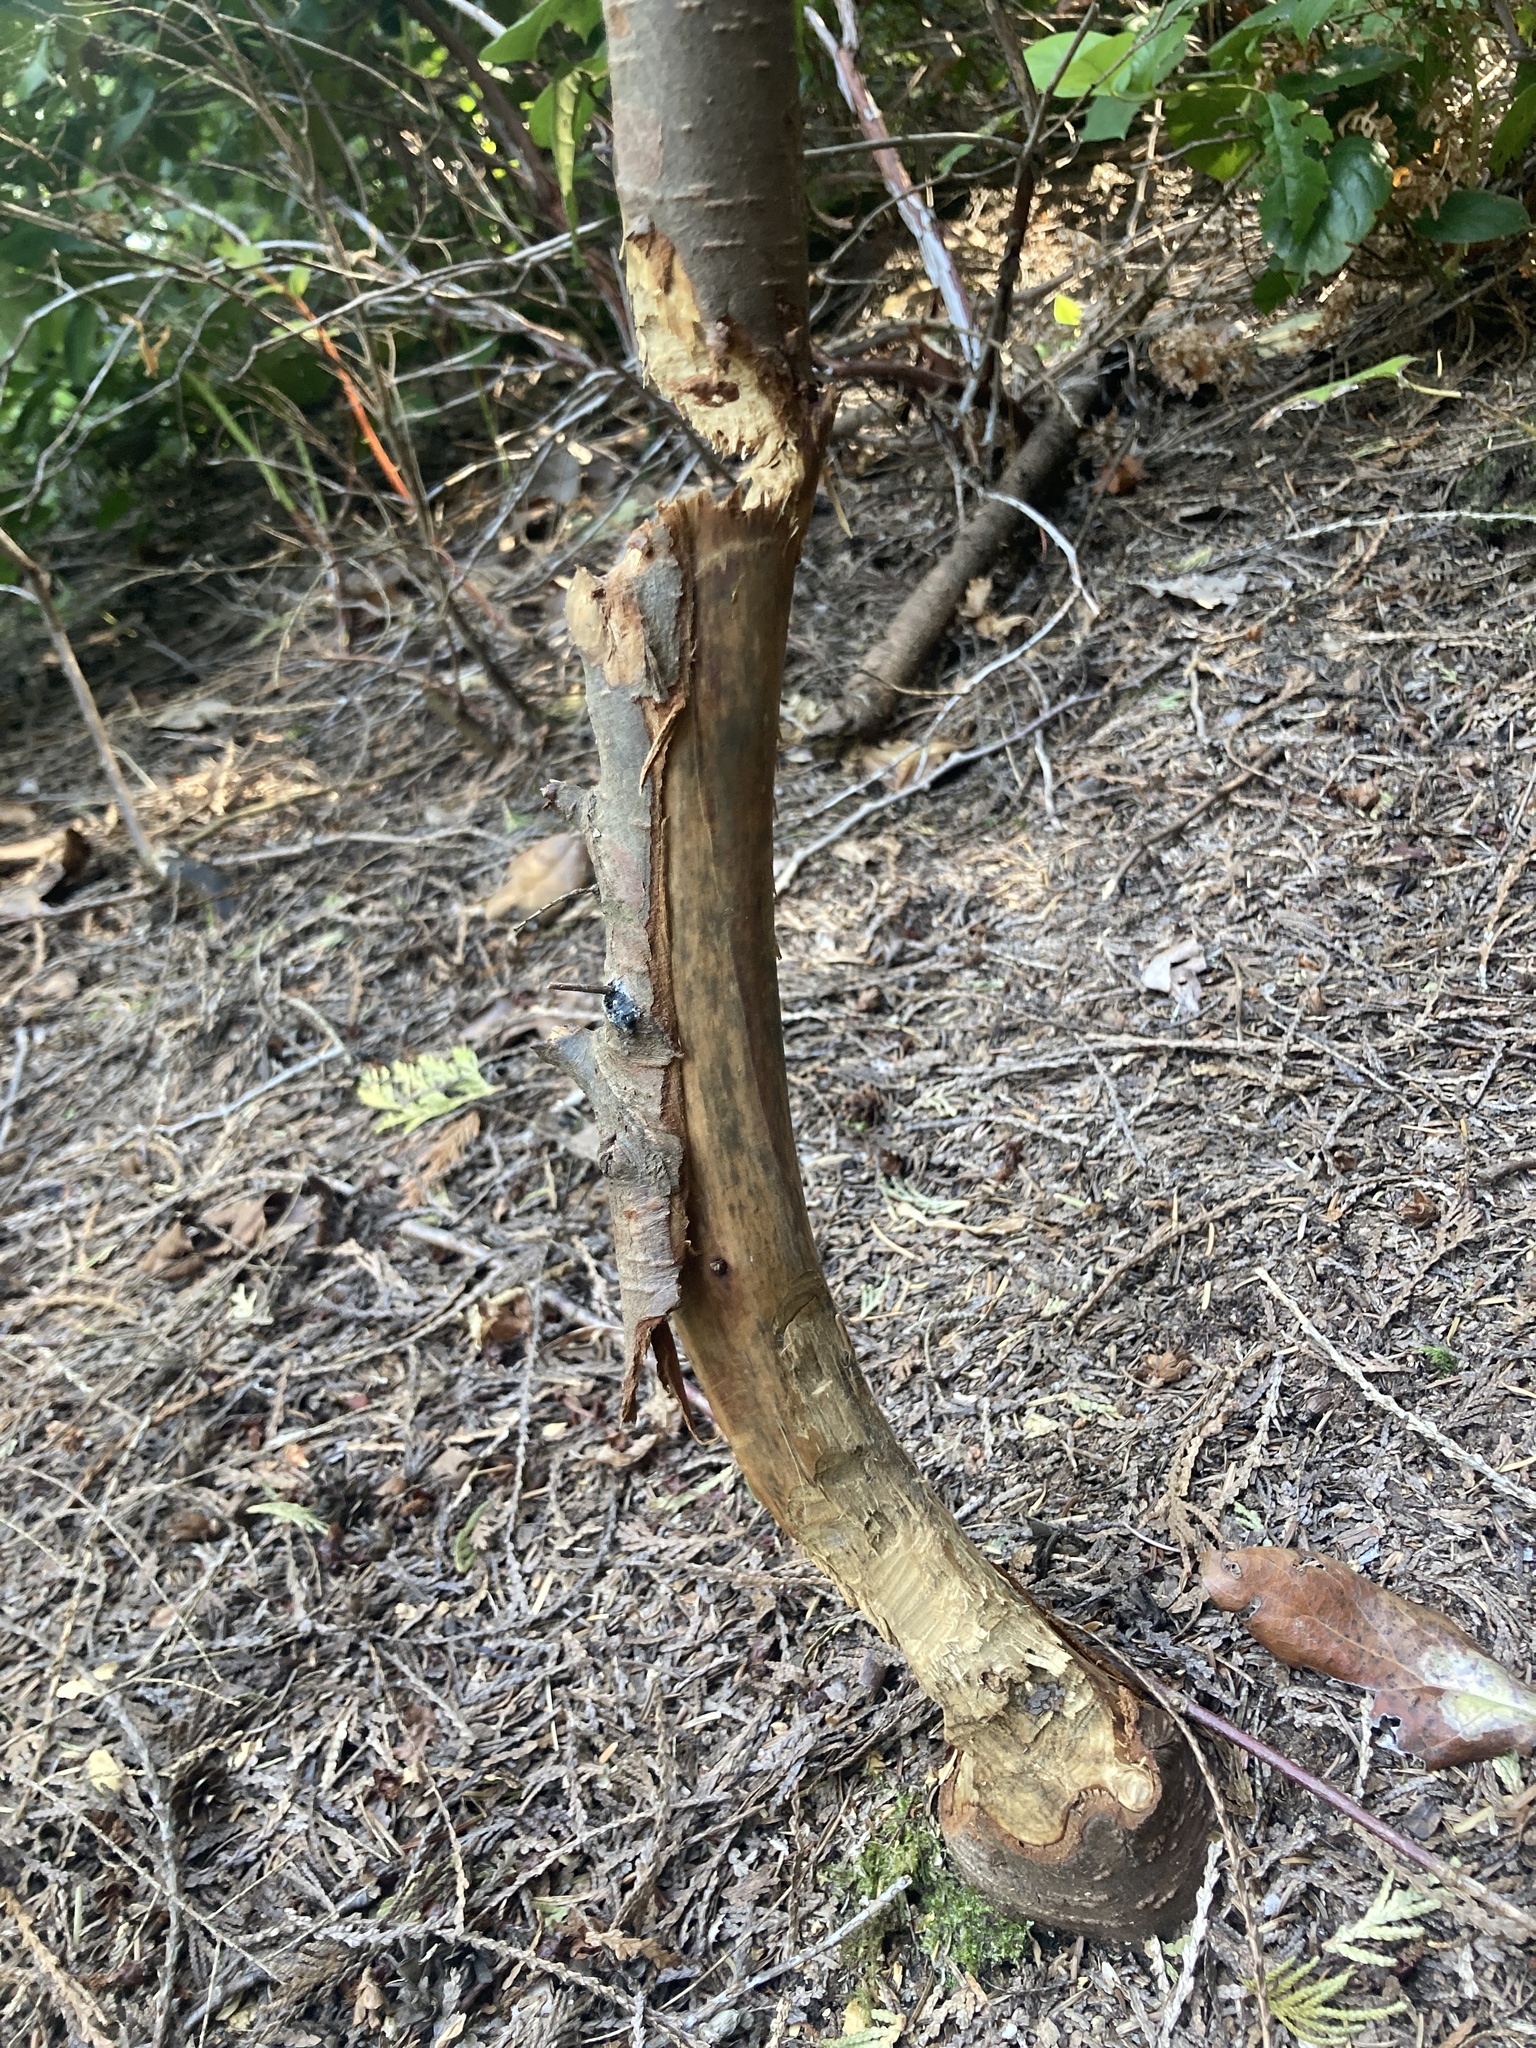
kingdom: Animalia
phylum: Chordata
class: Mammalia
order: Rodentia
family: Castoridae
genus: Castor
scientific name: Castor canadensis
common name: American beaver
